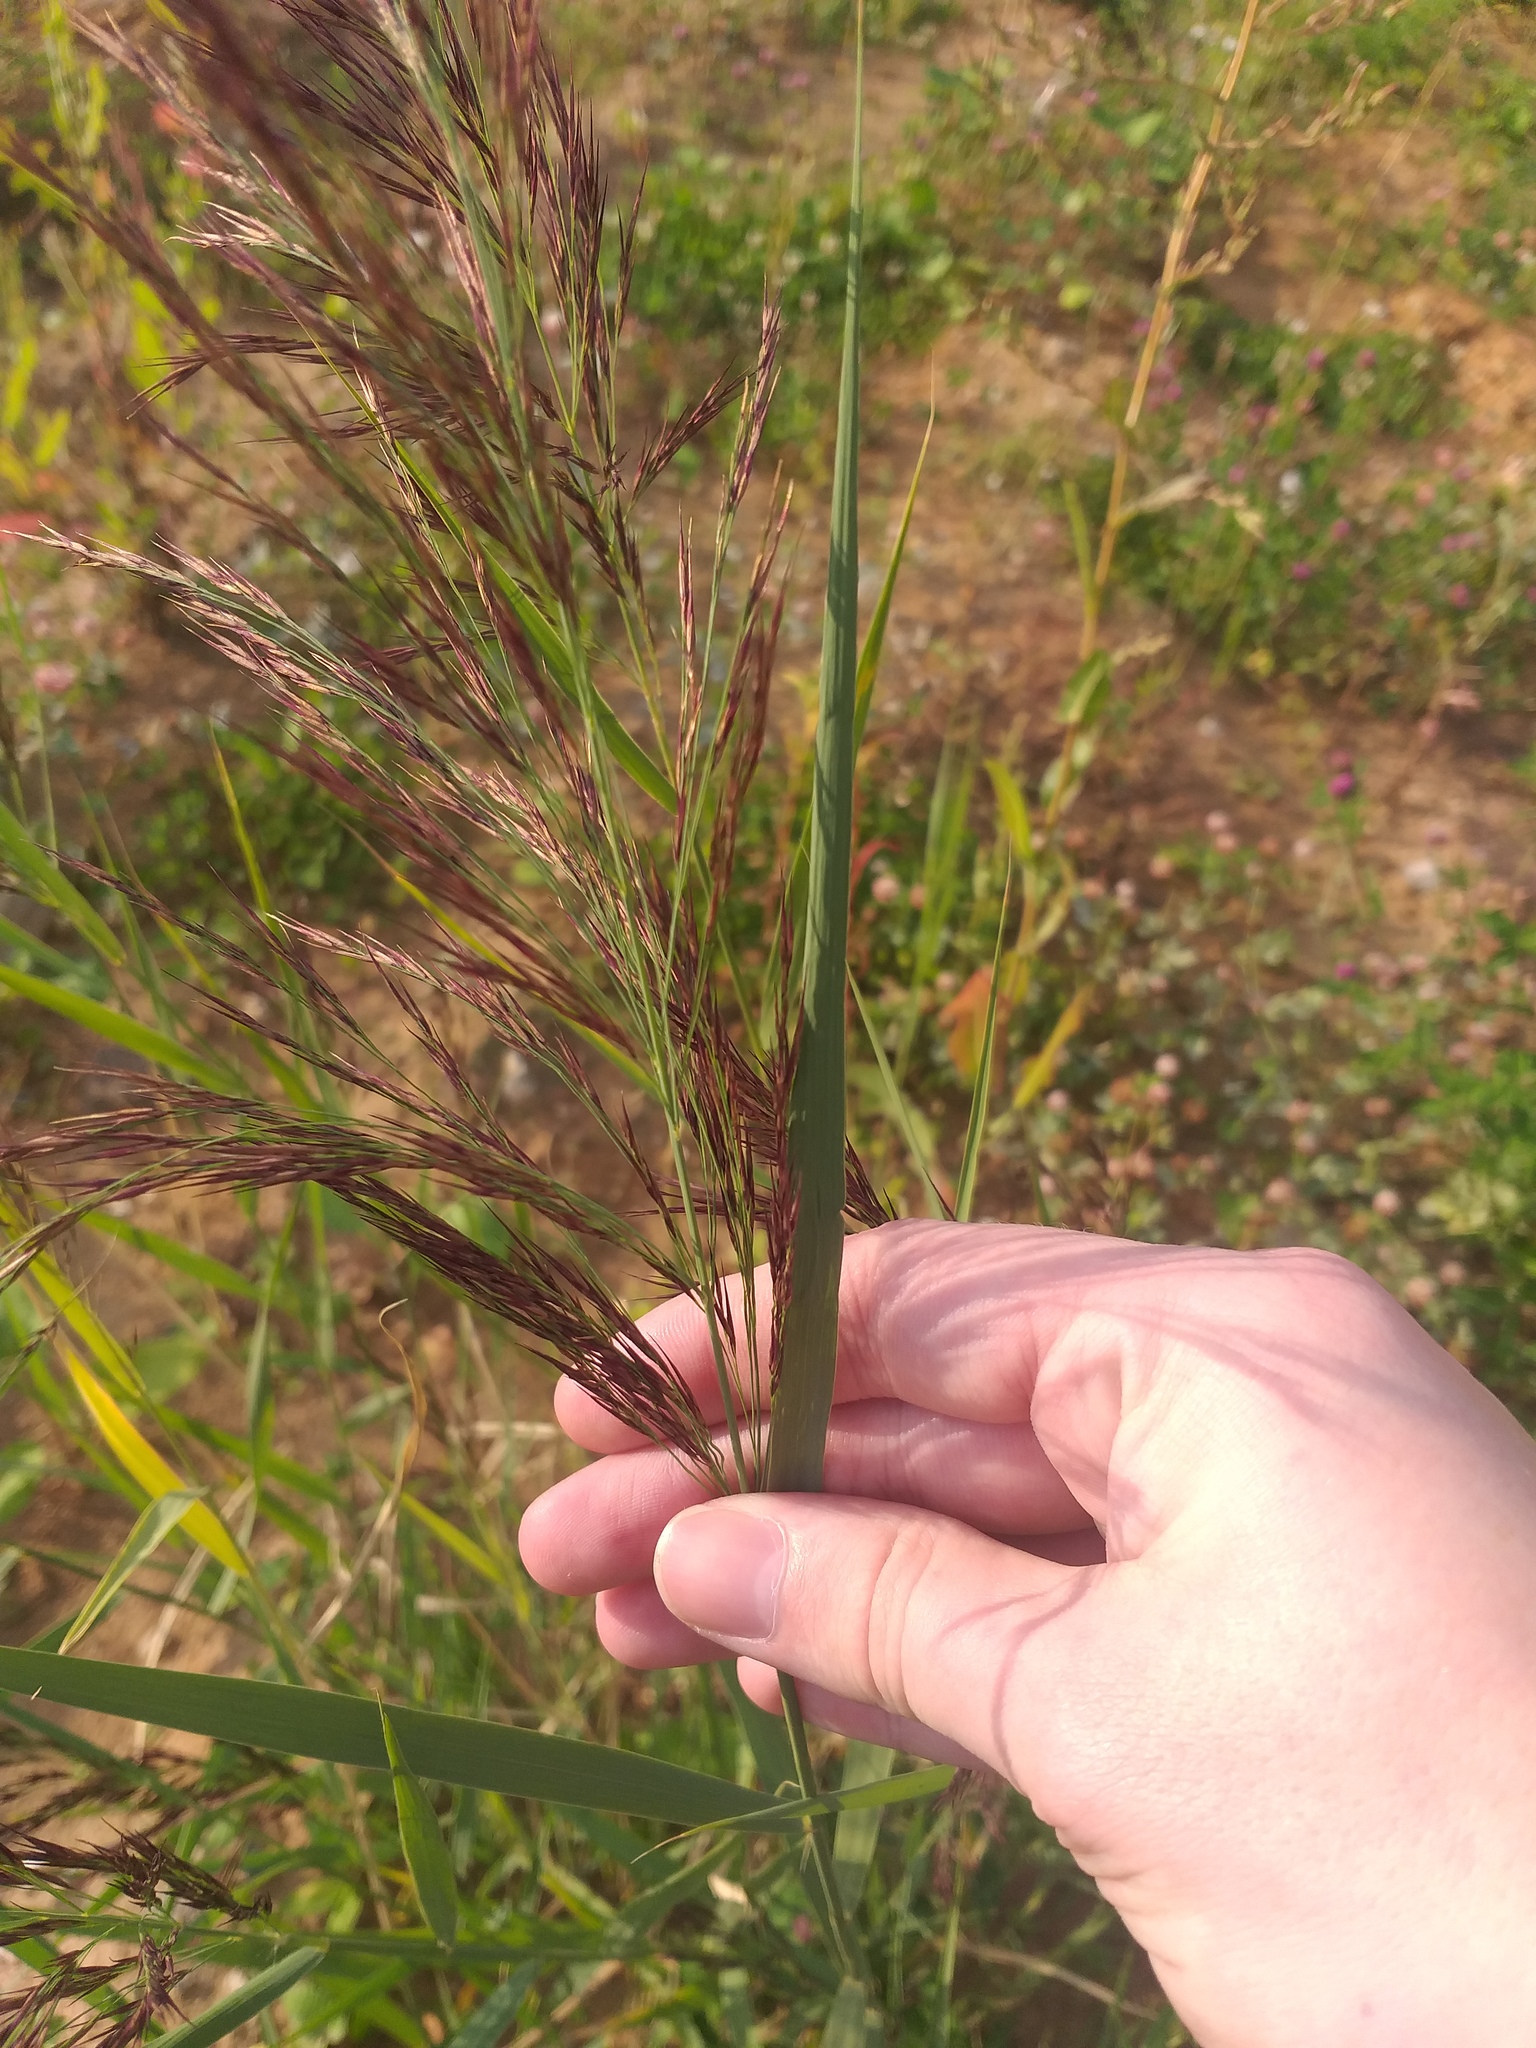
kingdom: Plantae
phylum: Tracheophyta
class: Liliopsida
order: Poales
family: Poaceae
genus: Phragmites
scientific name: Phragmites australis
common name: Common reed
